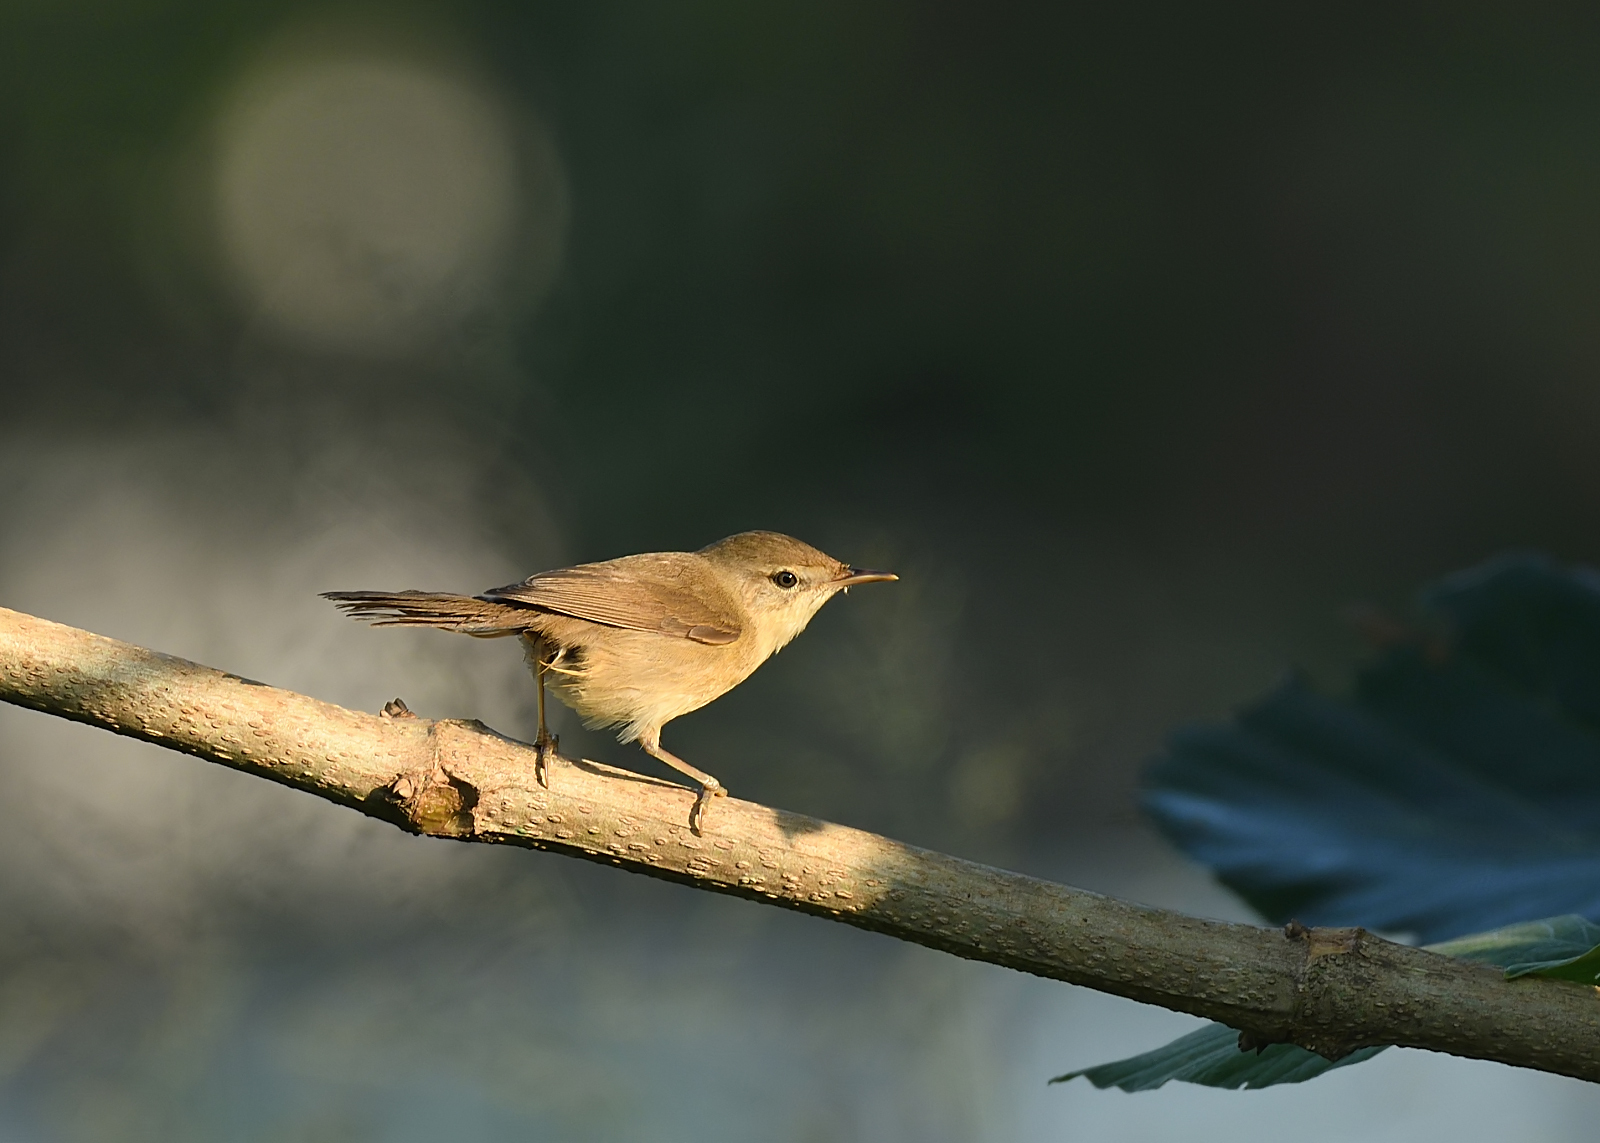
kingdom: Animalia
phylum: Chordata
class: Aves
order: Passeriformes
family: Acrocephalidae
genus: Iduna
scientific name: Iduna rama
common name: Sykes's warbler
